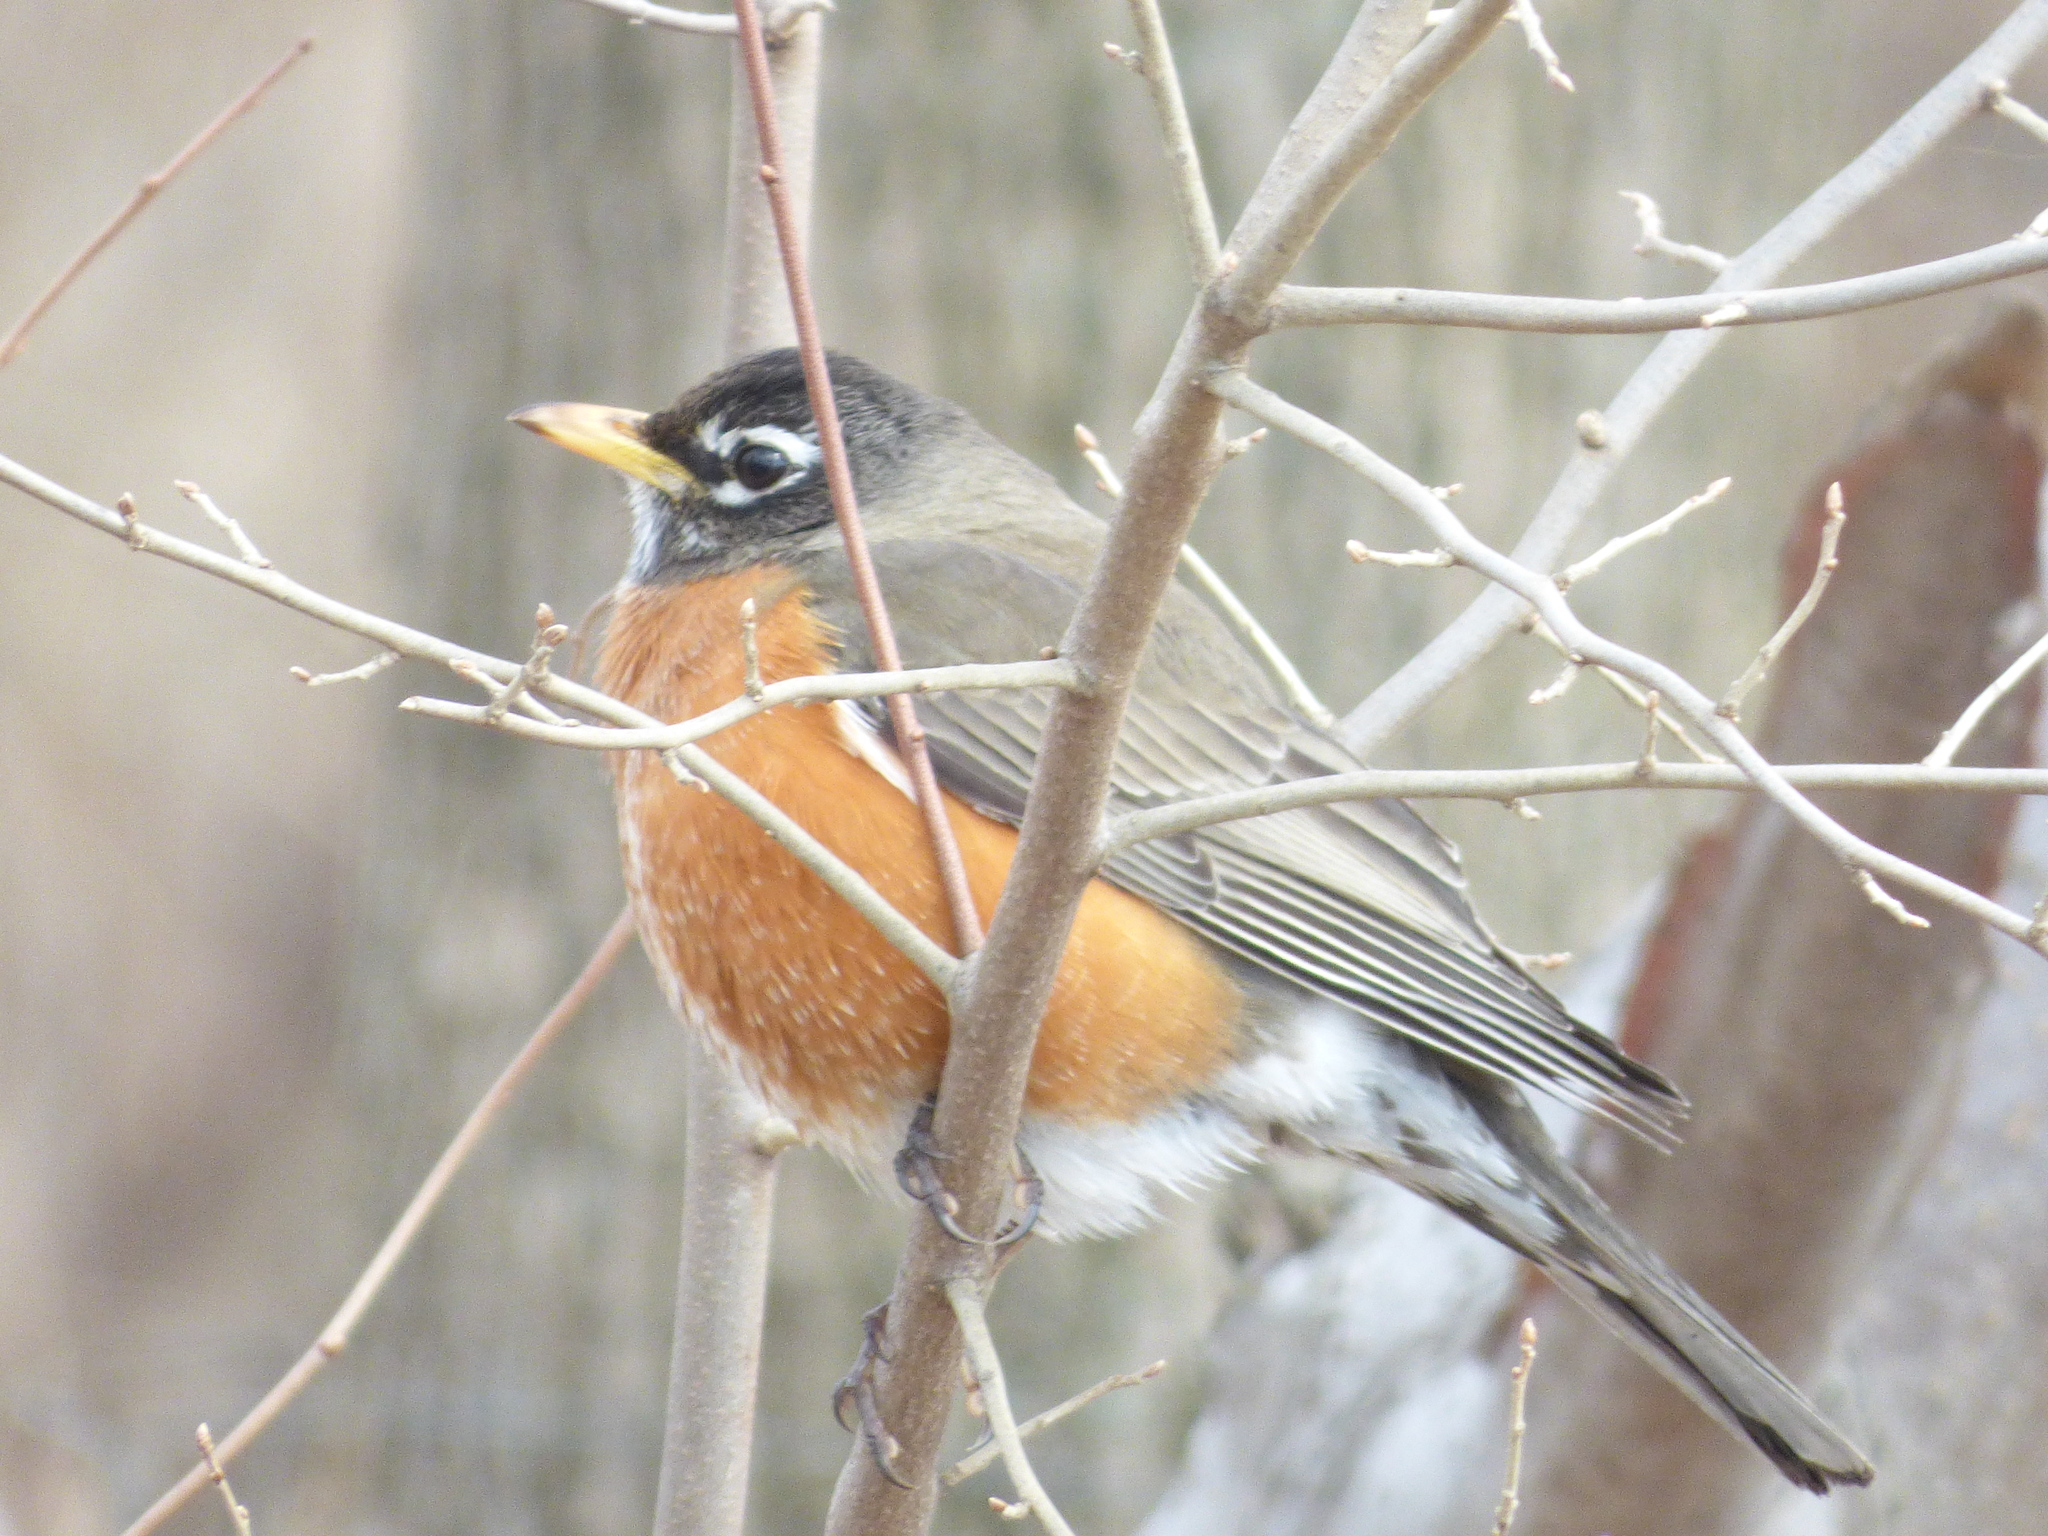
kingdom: Animalia
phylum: Chordata
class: Aves
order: Passeriformes
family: Turdidae
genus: Turdus
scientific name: Turdus migratorius
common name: American robin
